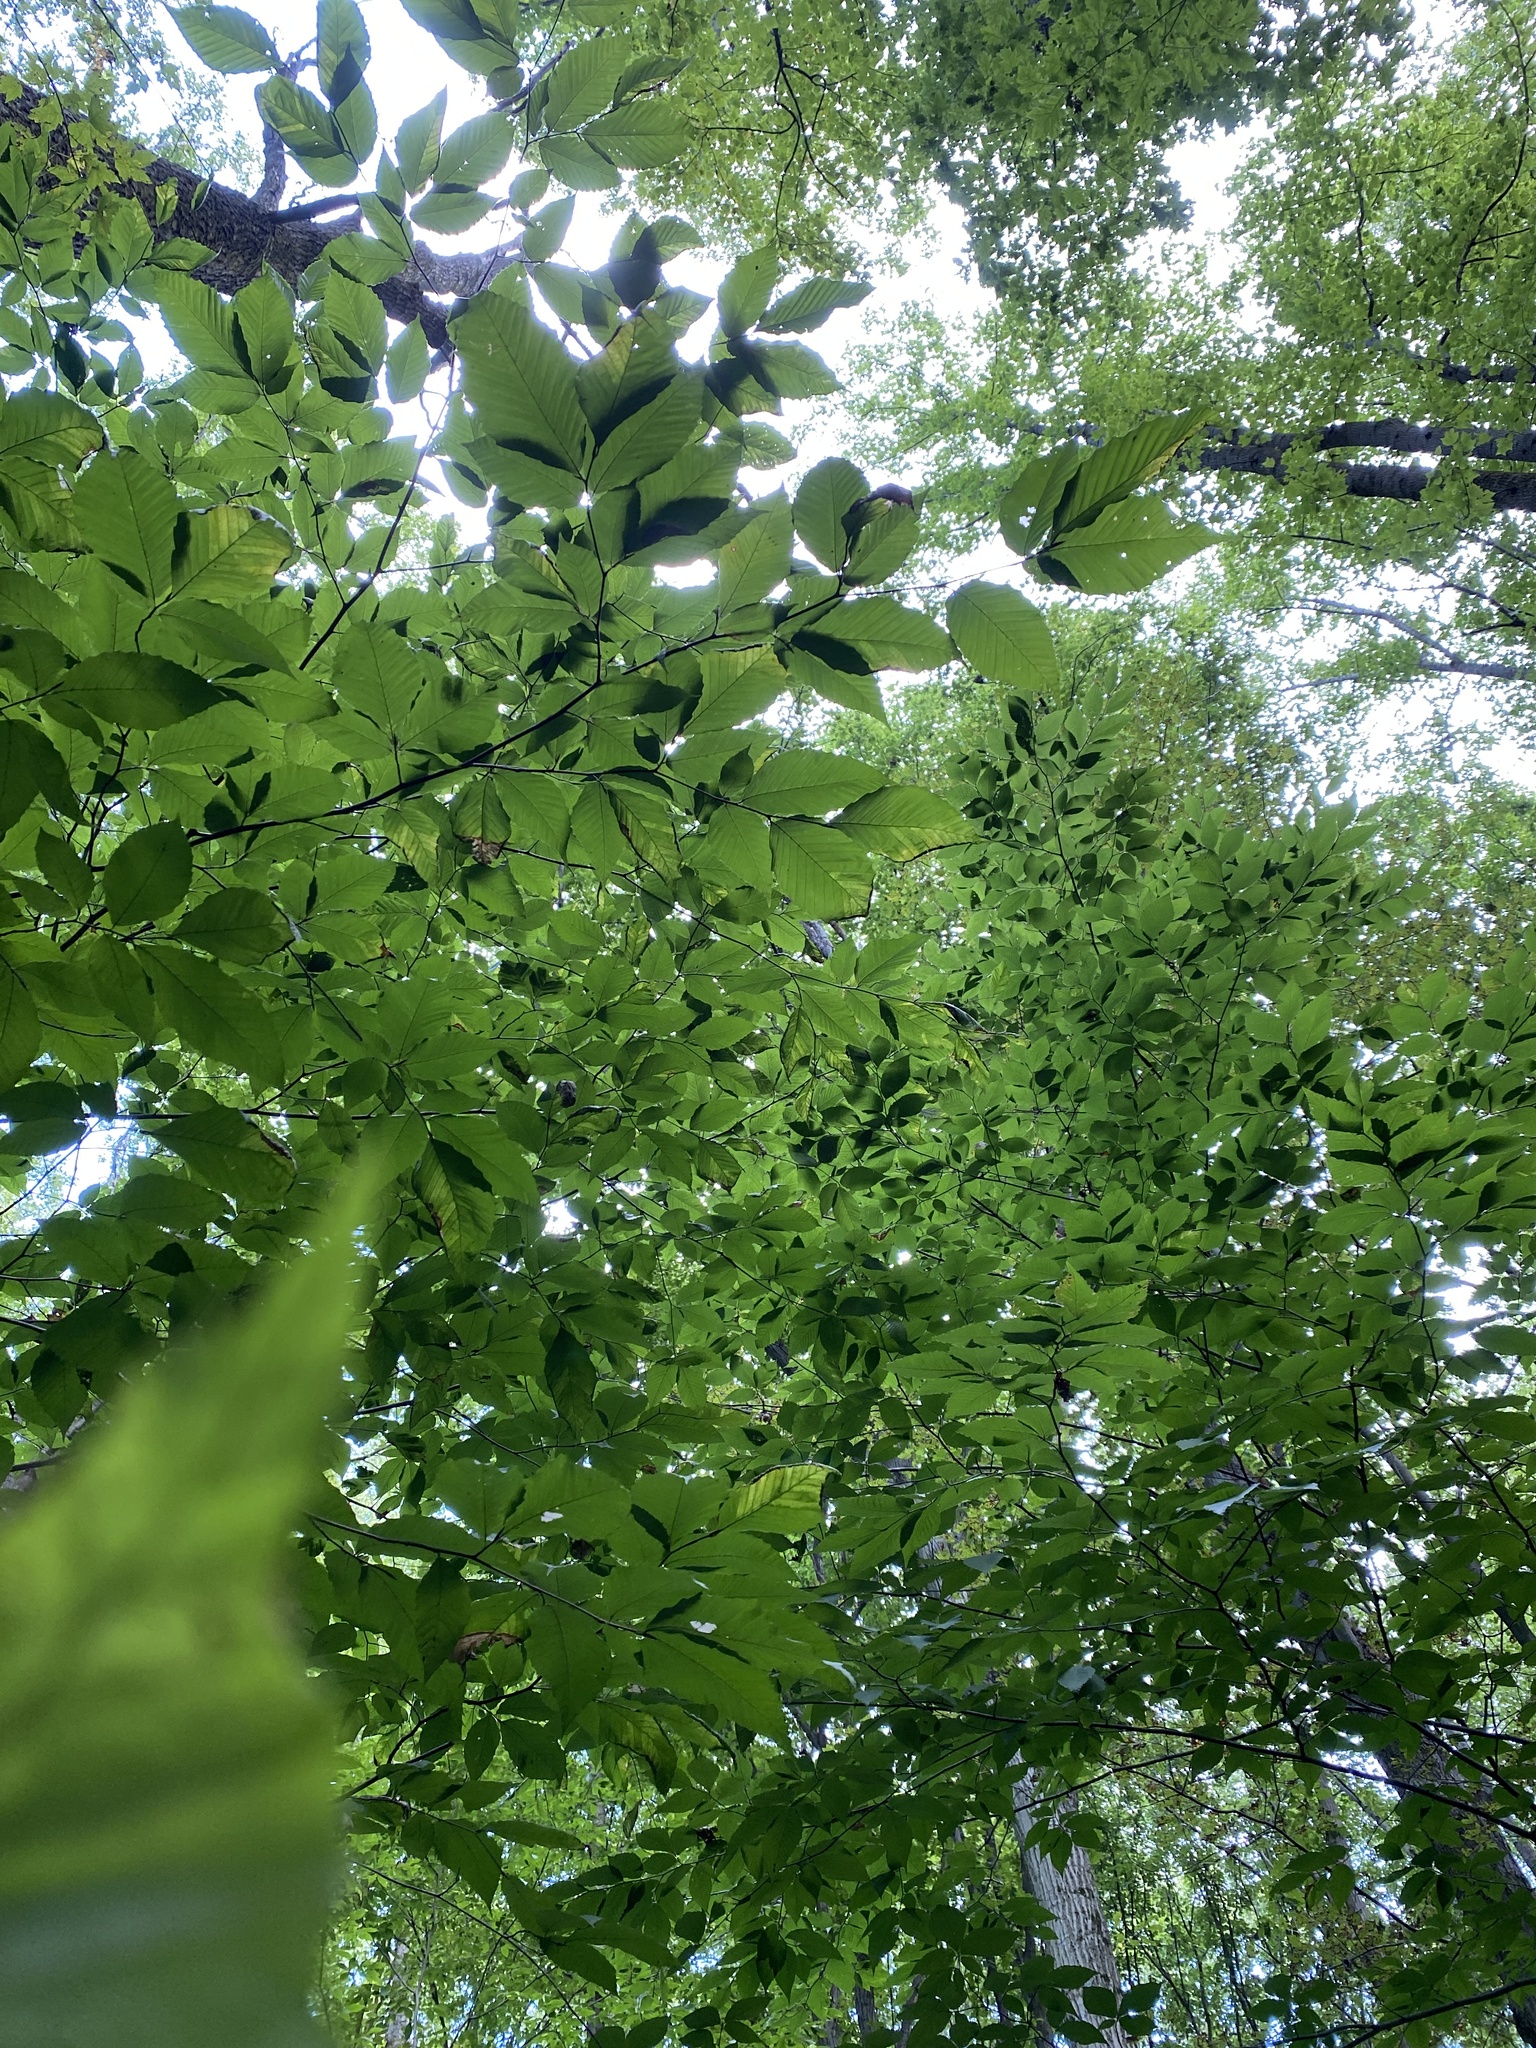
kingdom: Plantae
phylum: Tracheophyta
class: Magnoliopsida
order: Fagales
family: Fagaceae
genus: Fagus
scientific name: Fagus grandifolia
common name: American beech
